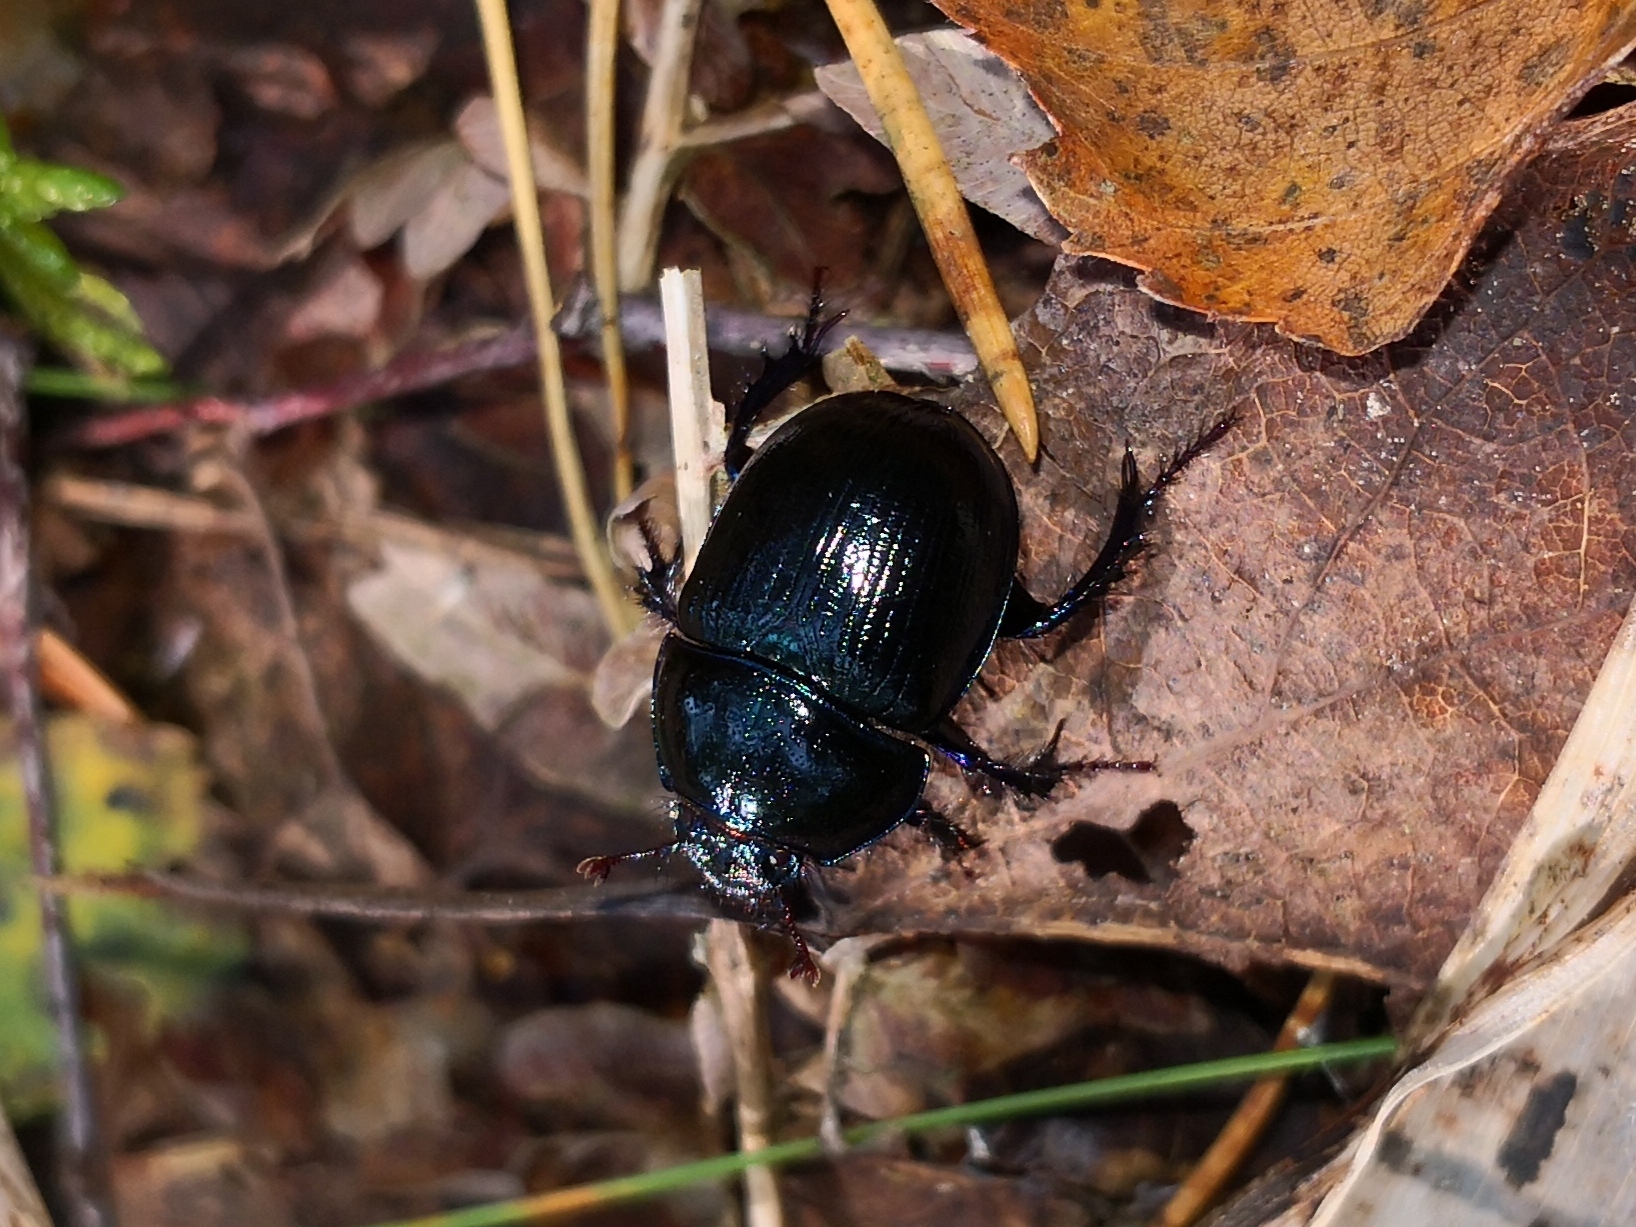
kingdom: Animalia
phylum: Arthropoda
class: Insecta
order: Coleoptera
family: Geotrupidae
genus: Anoplotrupes
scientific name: Anoplotrupes stercorosus
